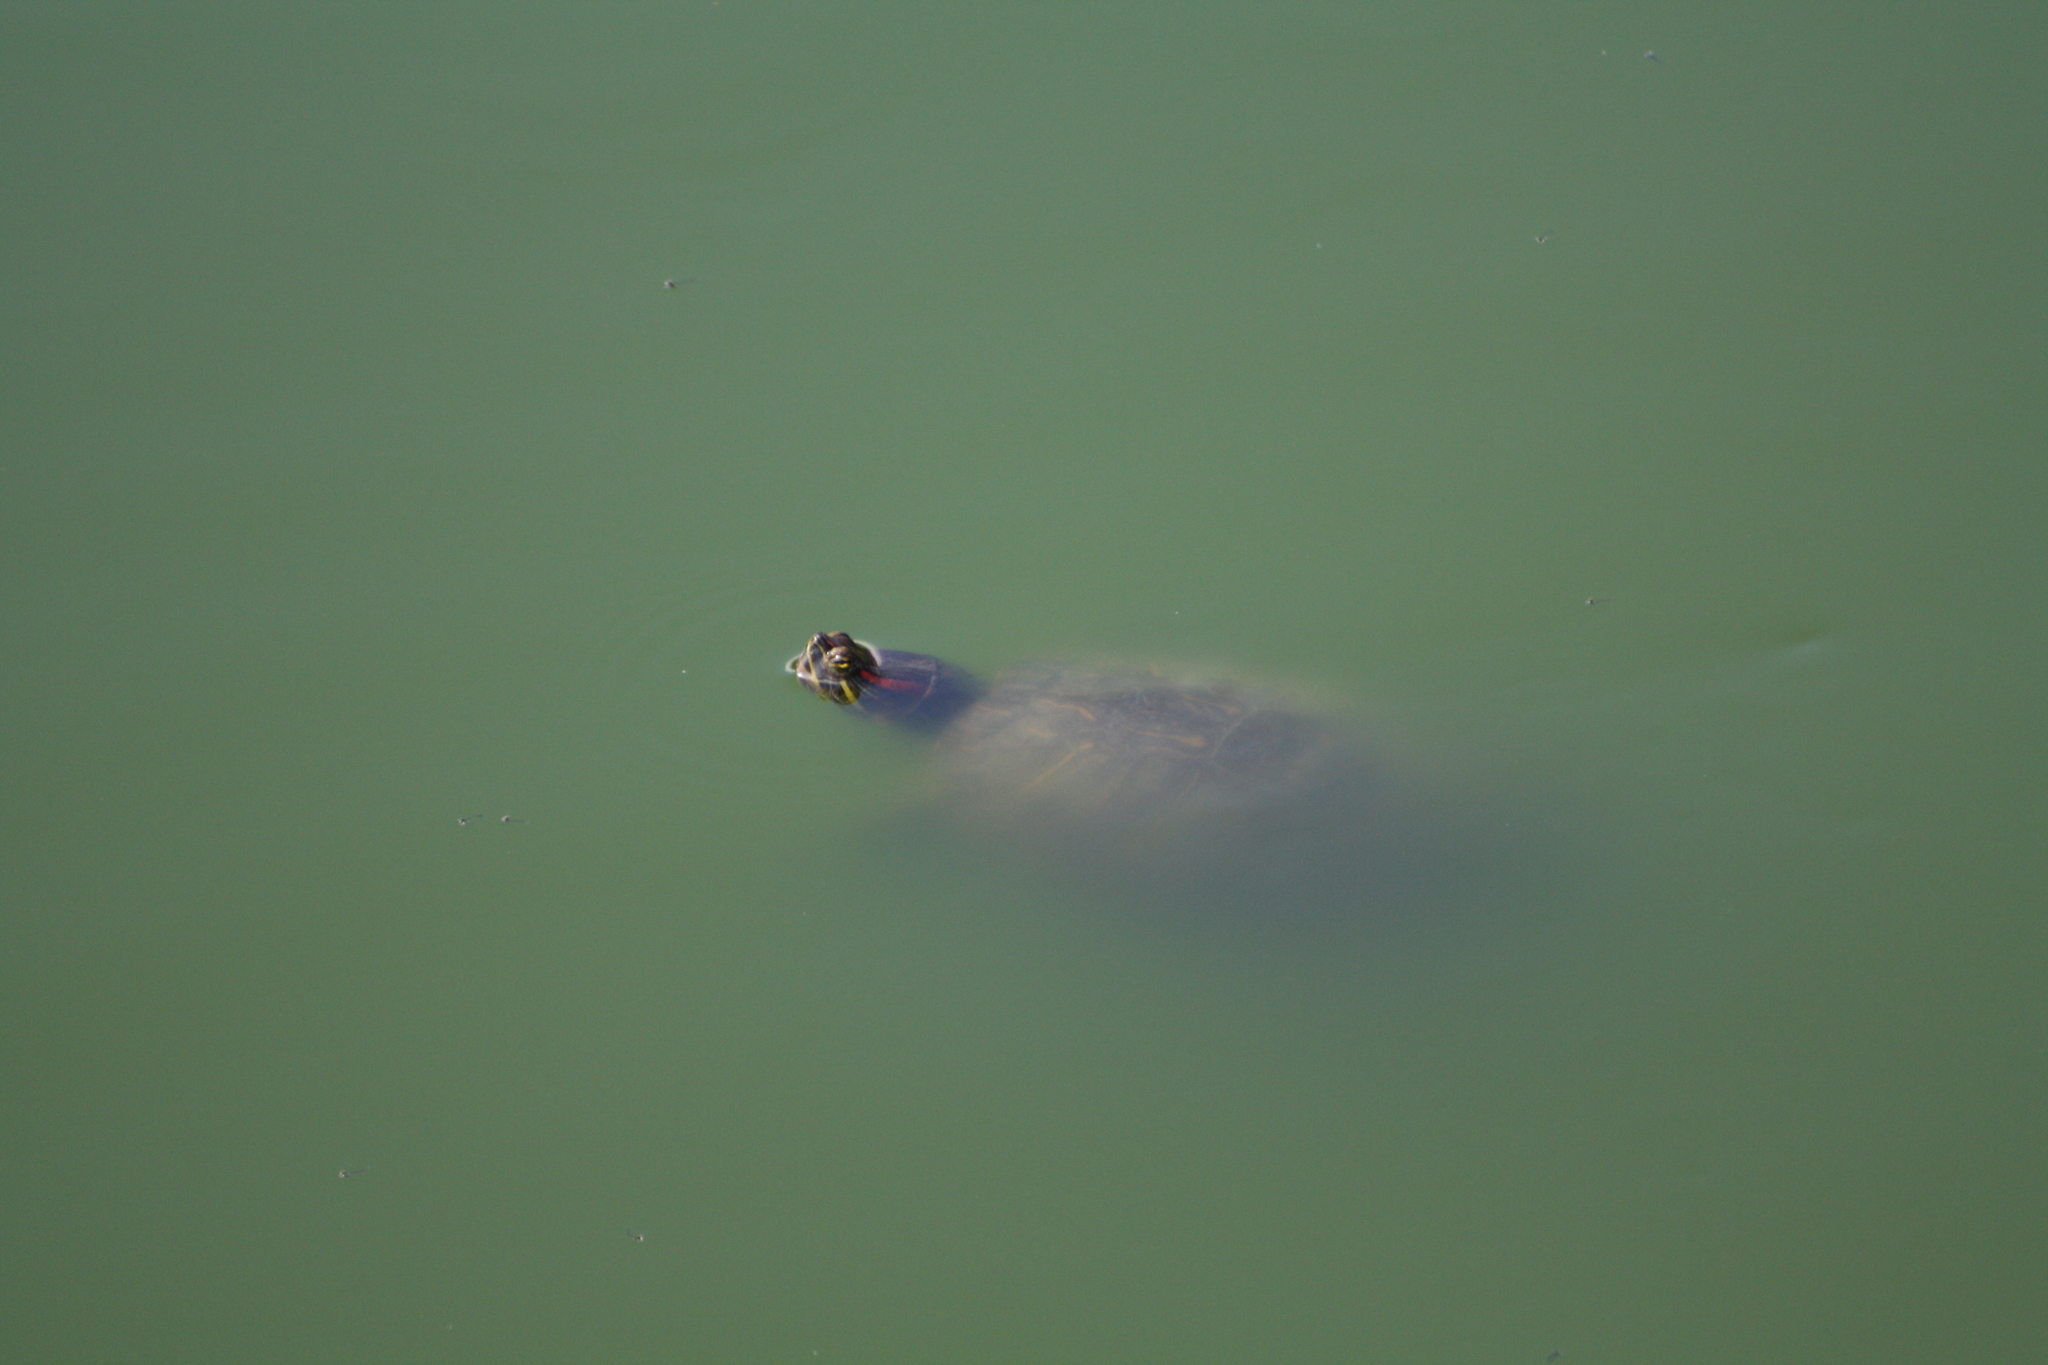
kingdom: Animalia
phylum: Chordata
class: Testudines
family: Emydidae
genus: Trachemys
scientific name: Trachemys scripta
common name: Slider
